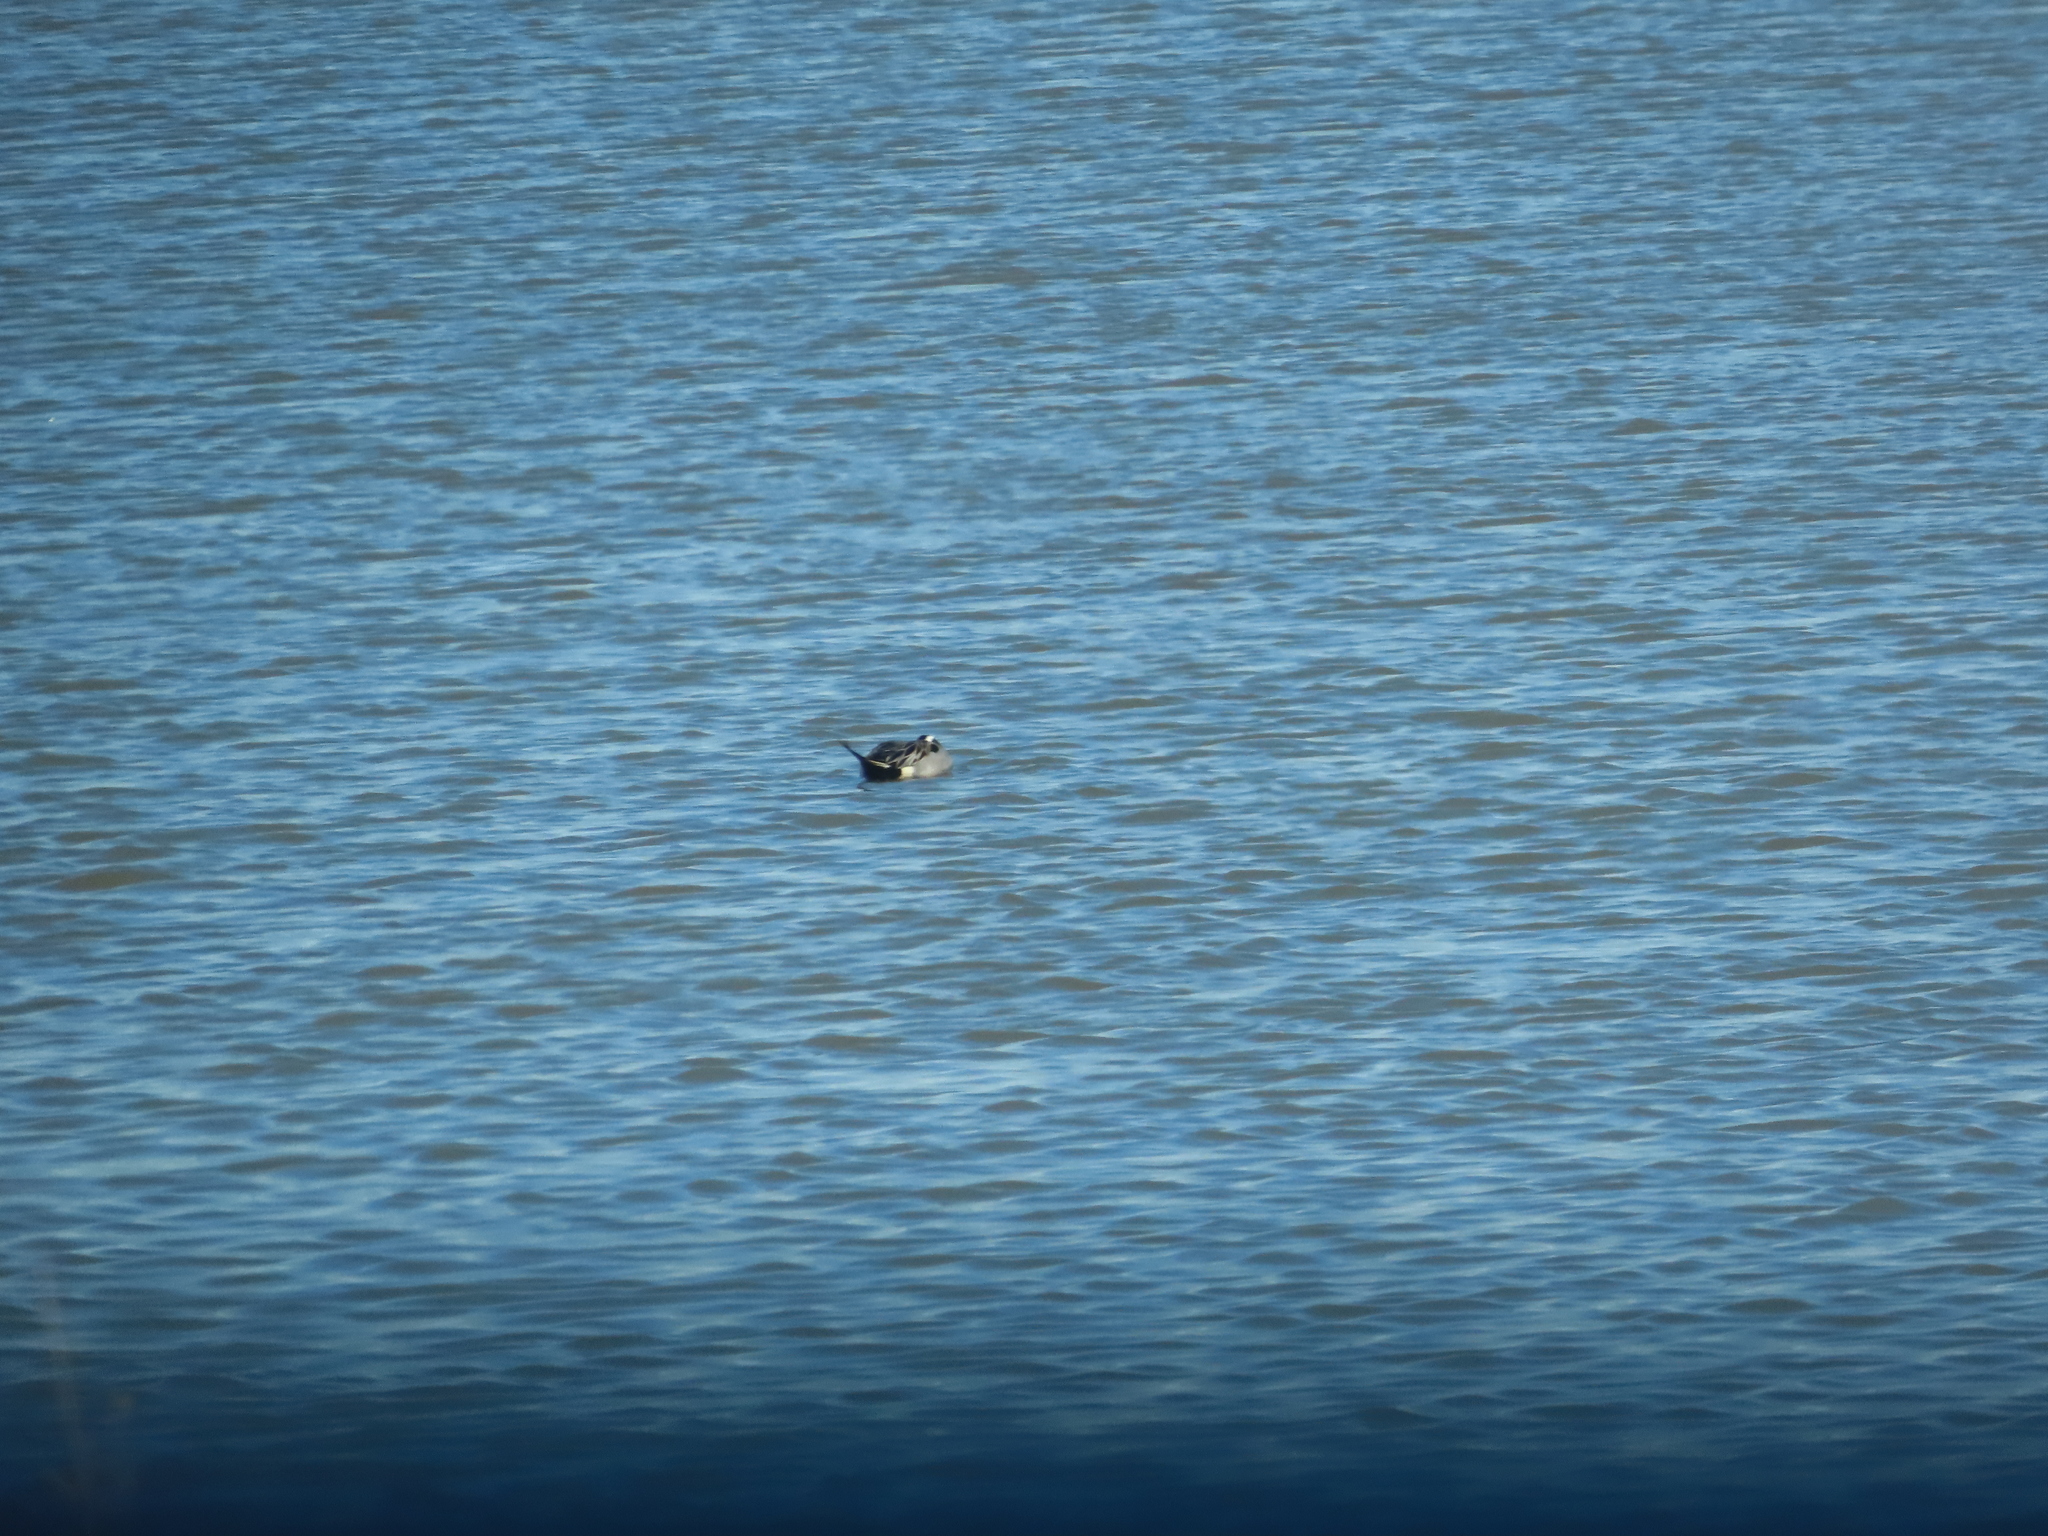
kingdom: Animalia
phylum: Chordata
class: Aves
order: Anseriformes
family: Anatidae
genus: Anas
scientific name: Anas acuta
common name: Northern pintail
